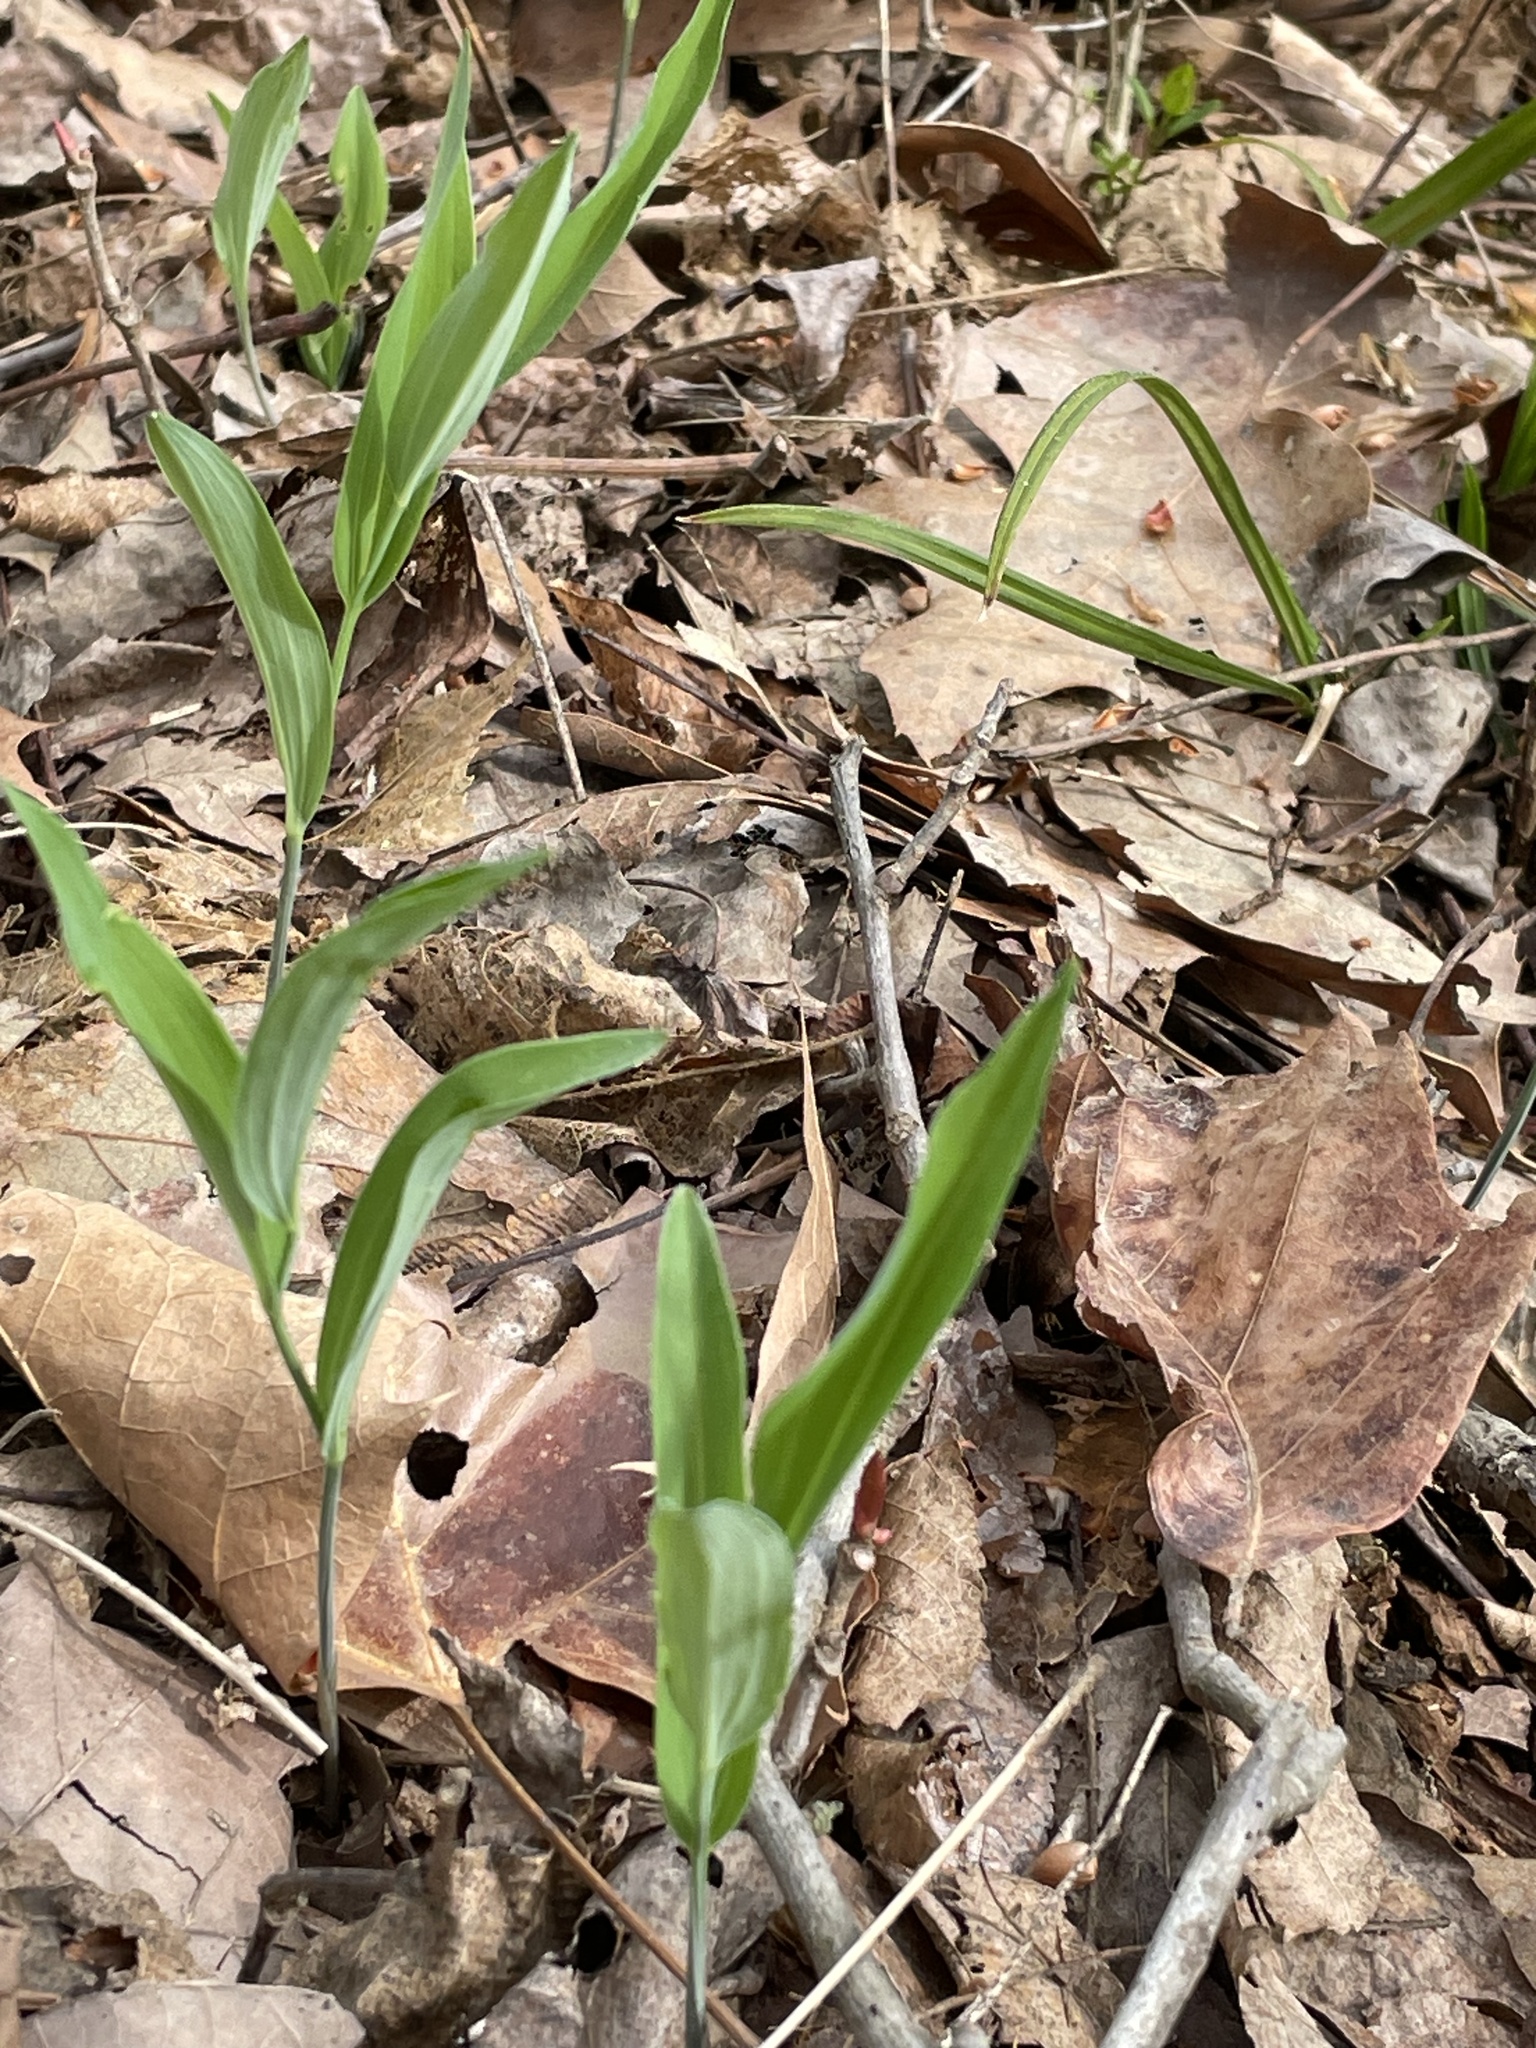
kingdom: Plantae
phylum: Tracheophyta
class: Liliopsida
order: Asparagales
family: Asparagaceae
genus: Polygonatum
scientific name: Polygonatum biflorum
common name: American solomon's-seal
